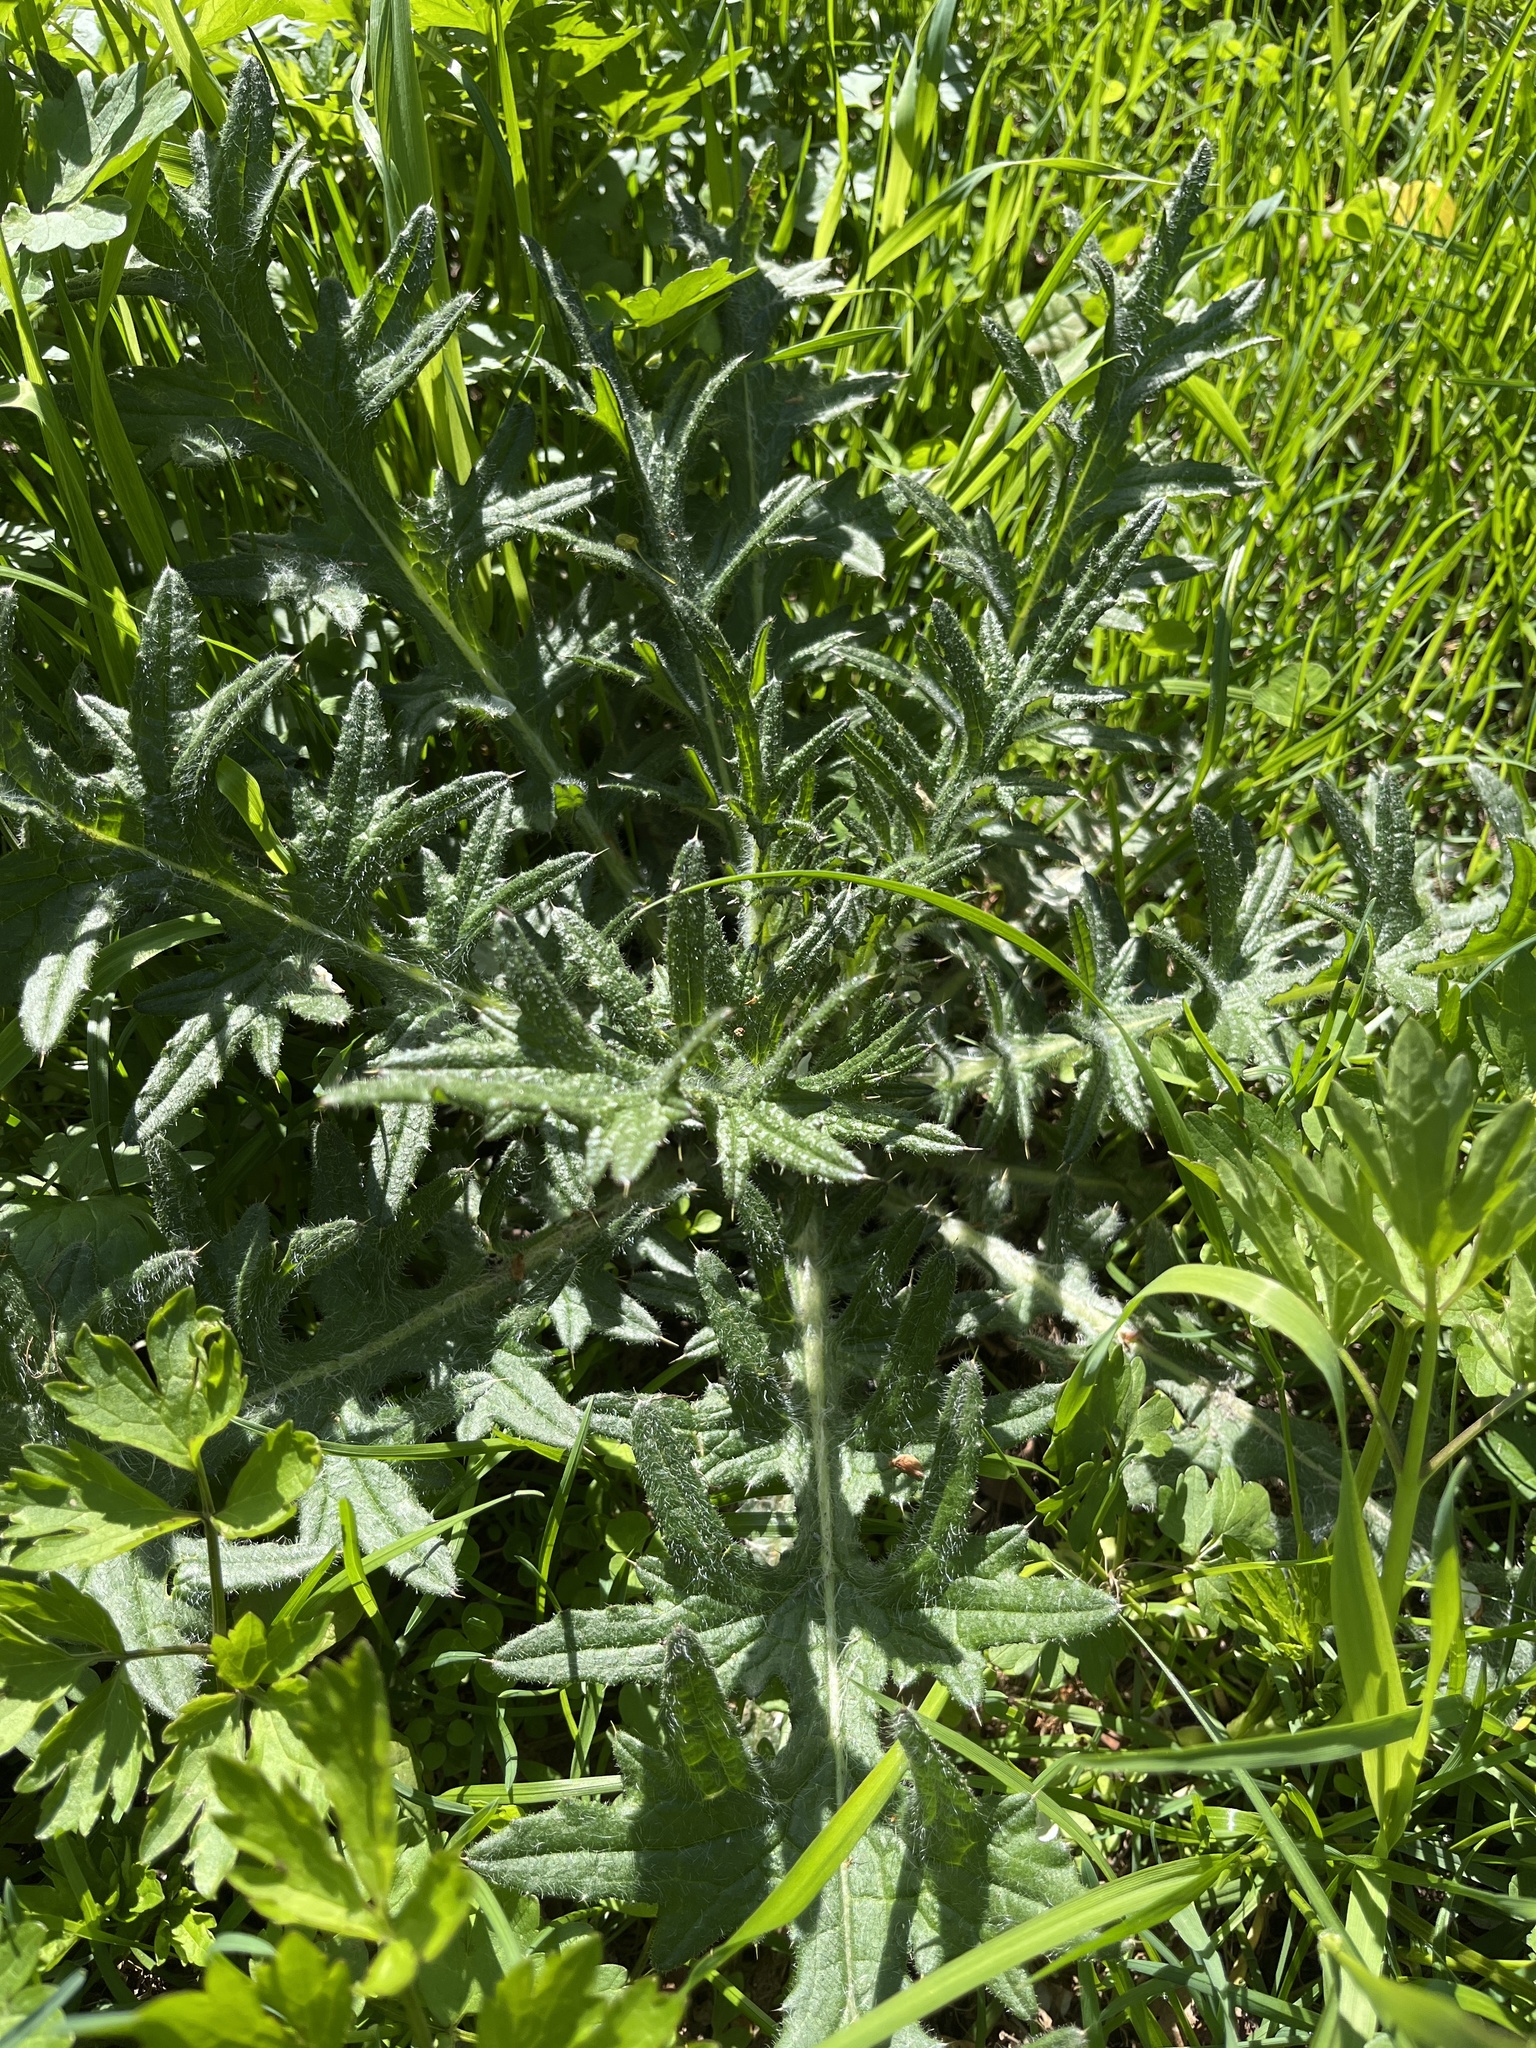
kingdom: Plantae
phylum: Tracheophyta
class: Magnoliopsida
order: Asterales
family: Asteraceae
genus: Cirsium
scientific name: Cirsium vulgare
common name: Bull thistle
